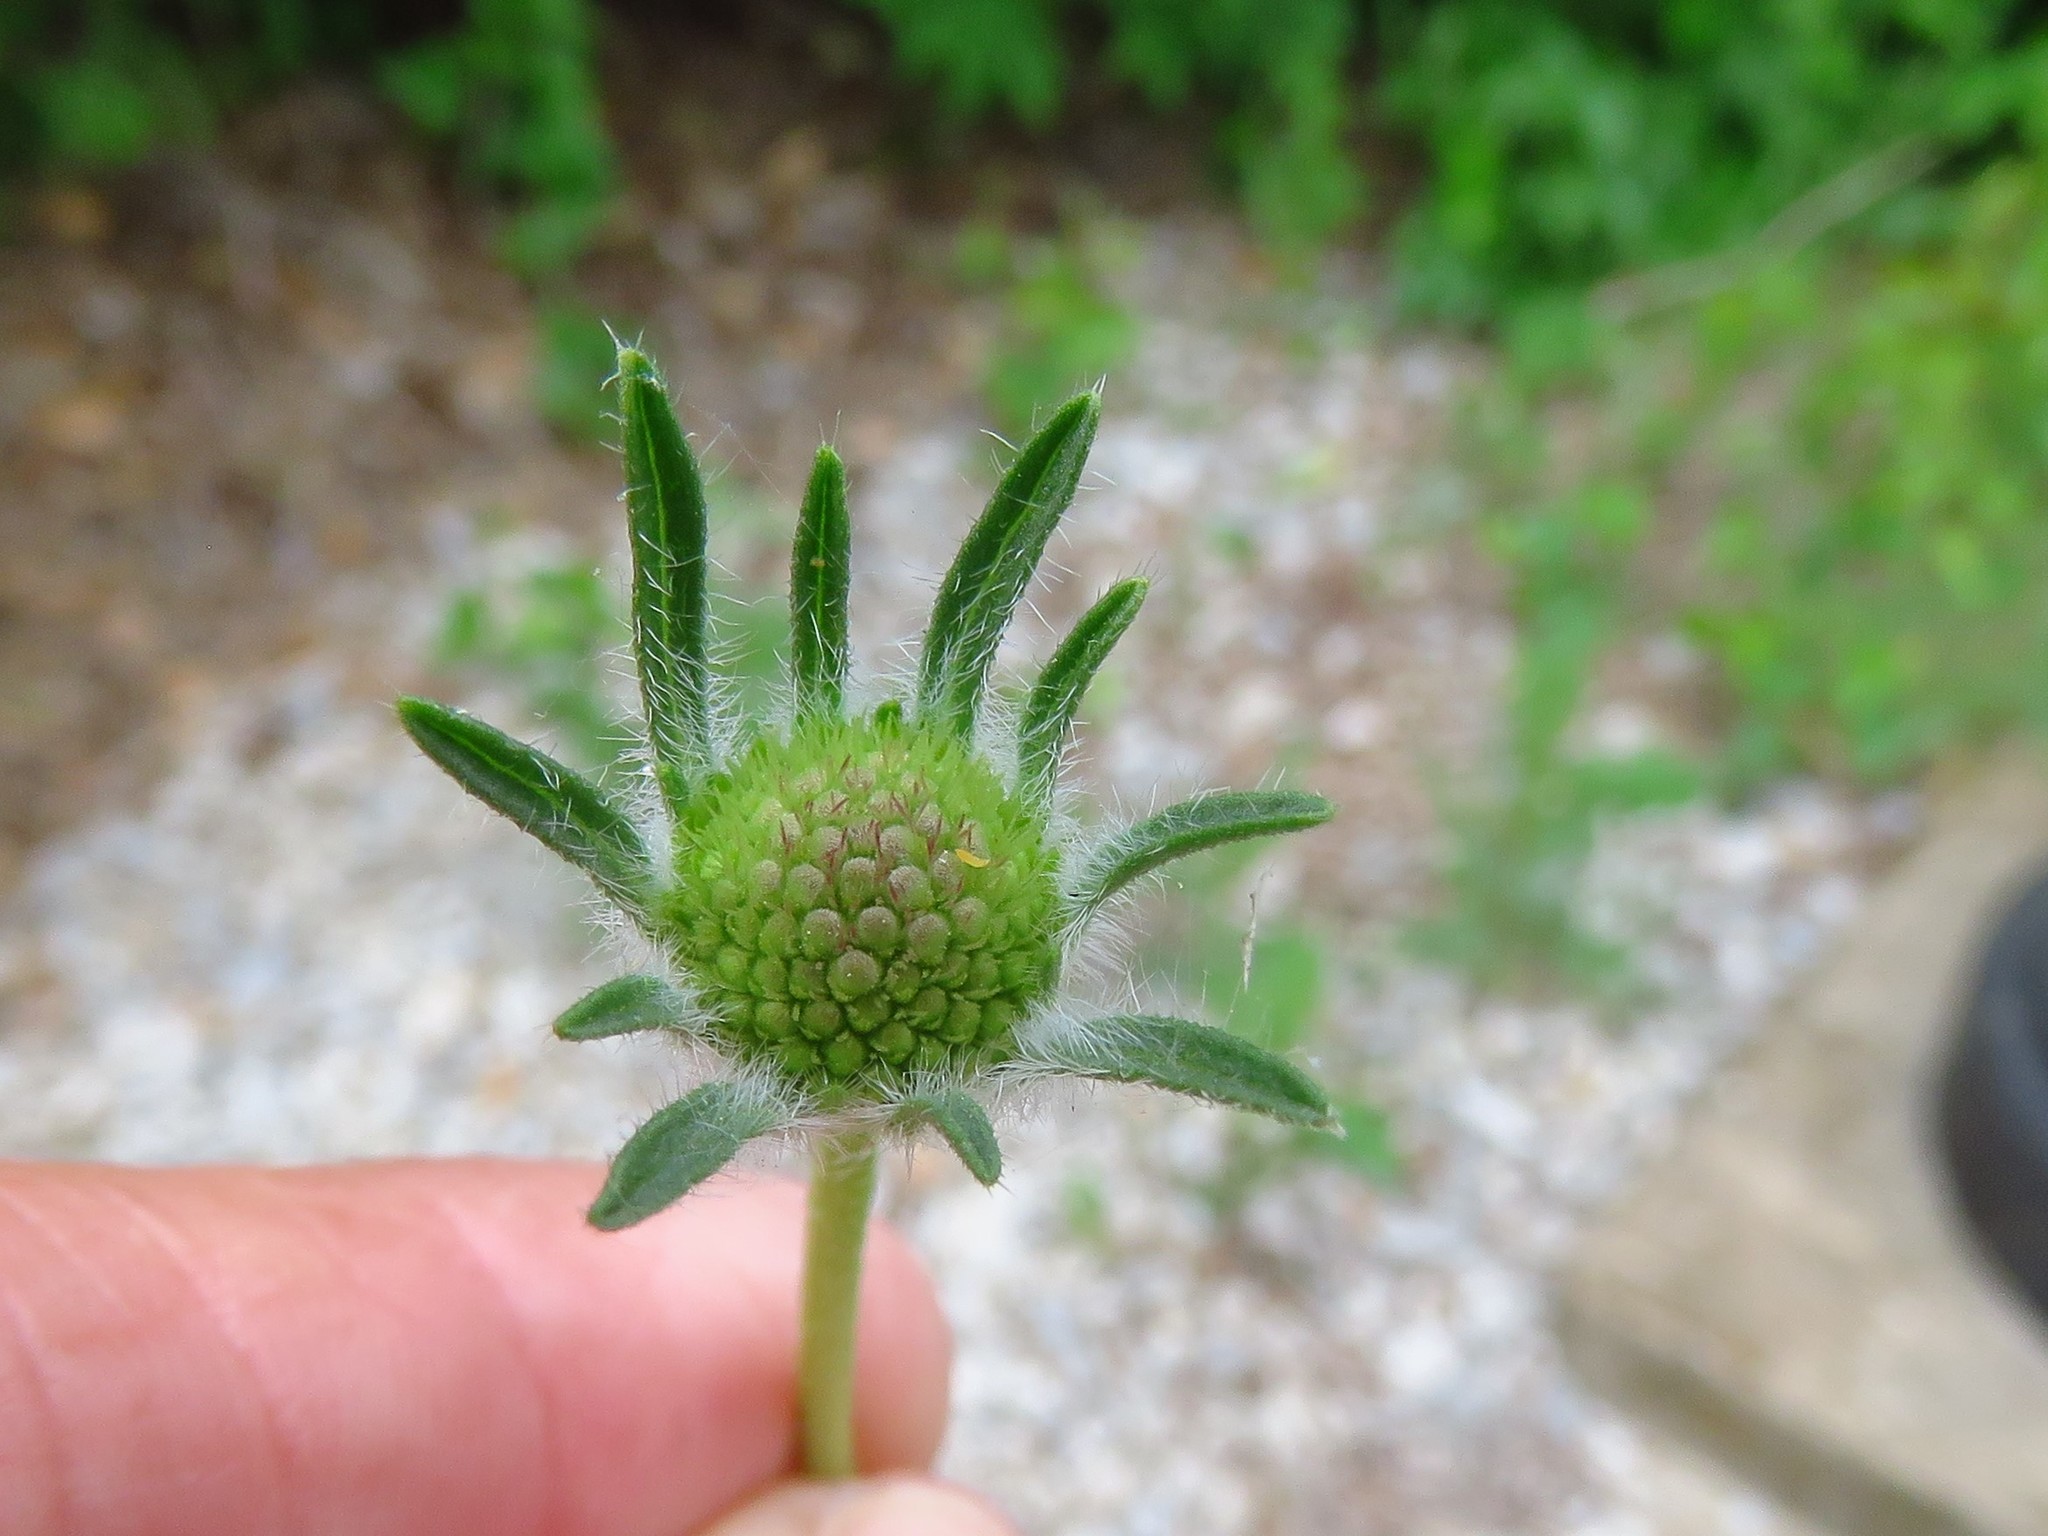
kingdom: Plantae
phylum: Tracheophyta
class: Magnoliopsida
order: Dipsacales
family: Caprifoliaceae
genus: Sixalix
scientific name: Sixalix atropurpurea
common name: Sweet scabious
